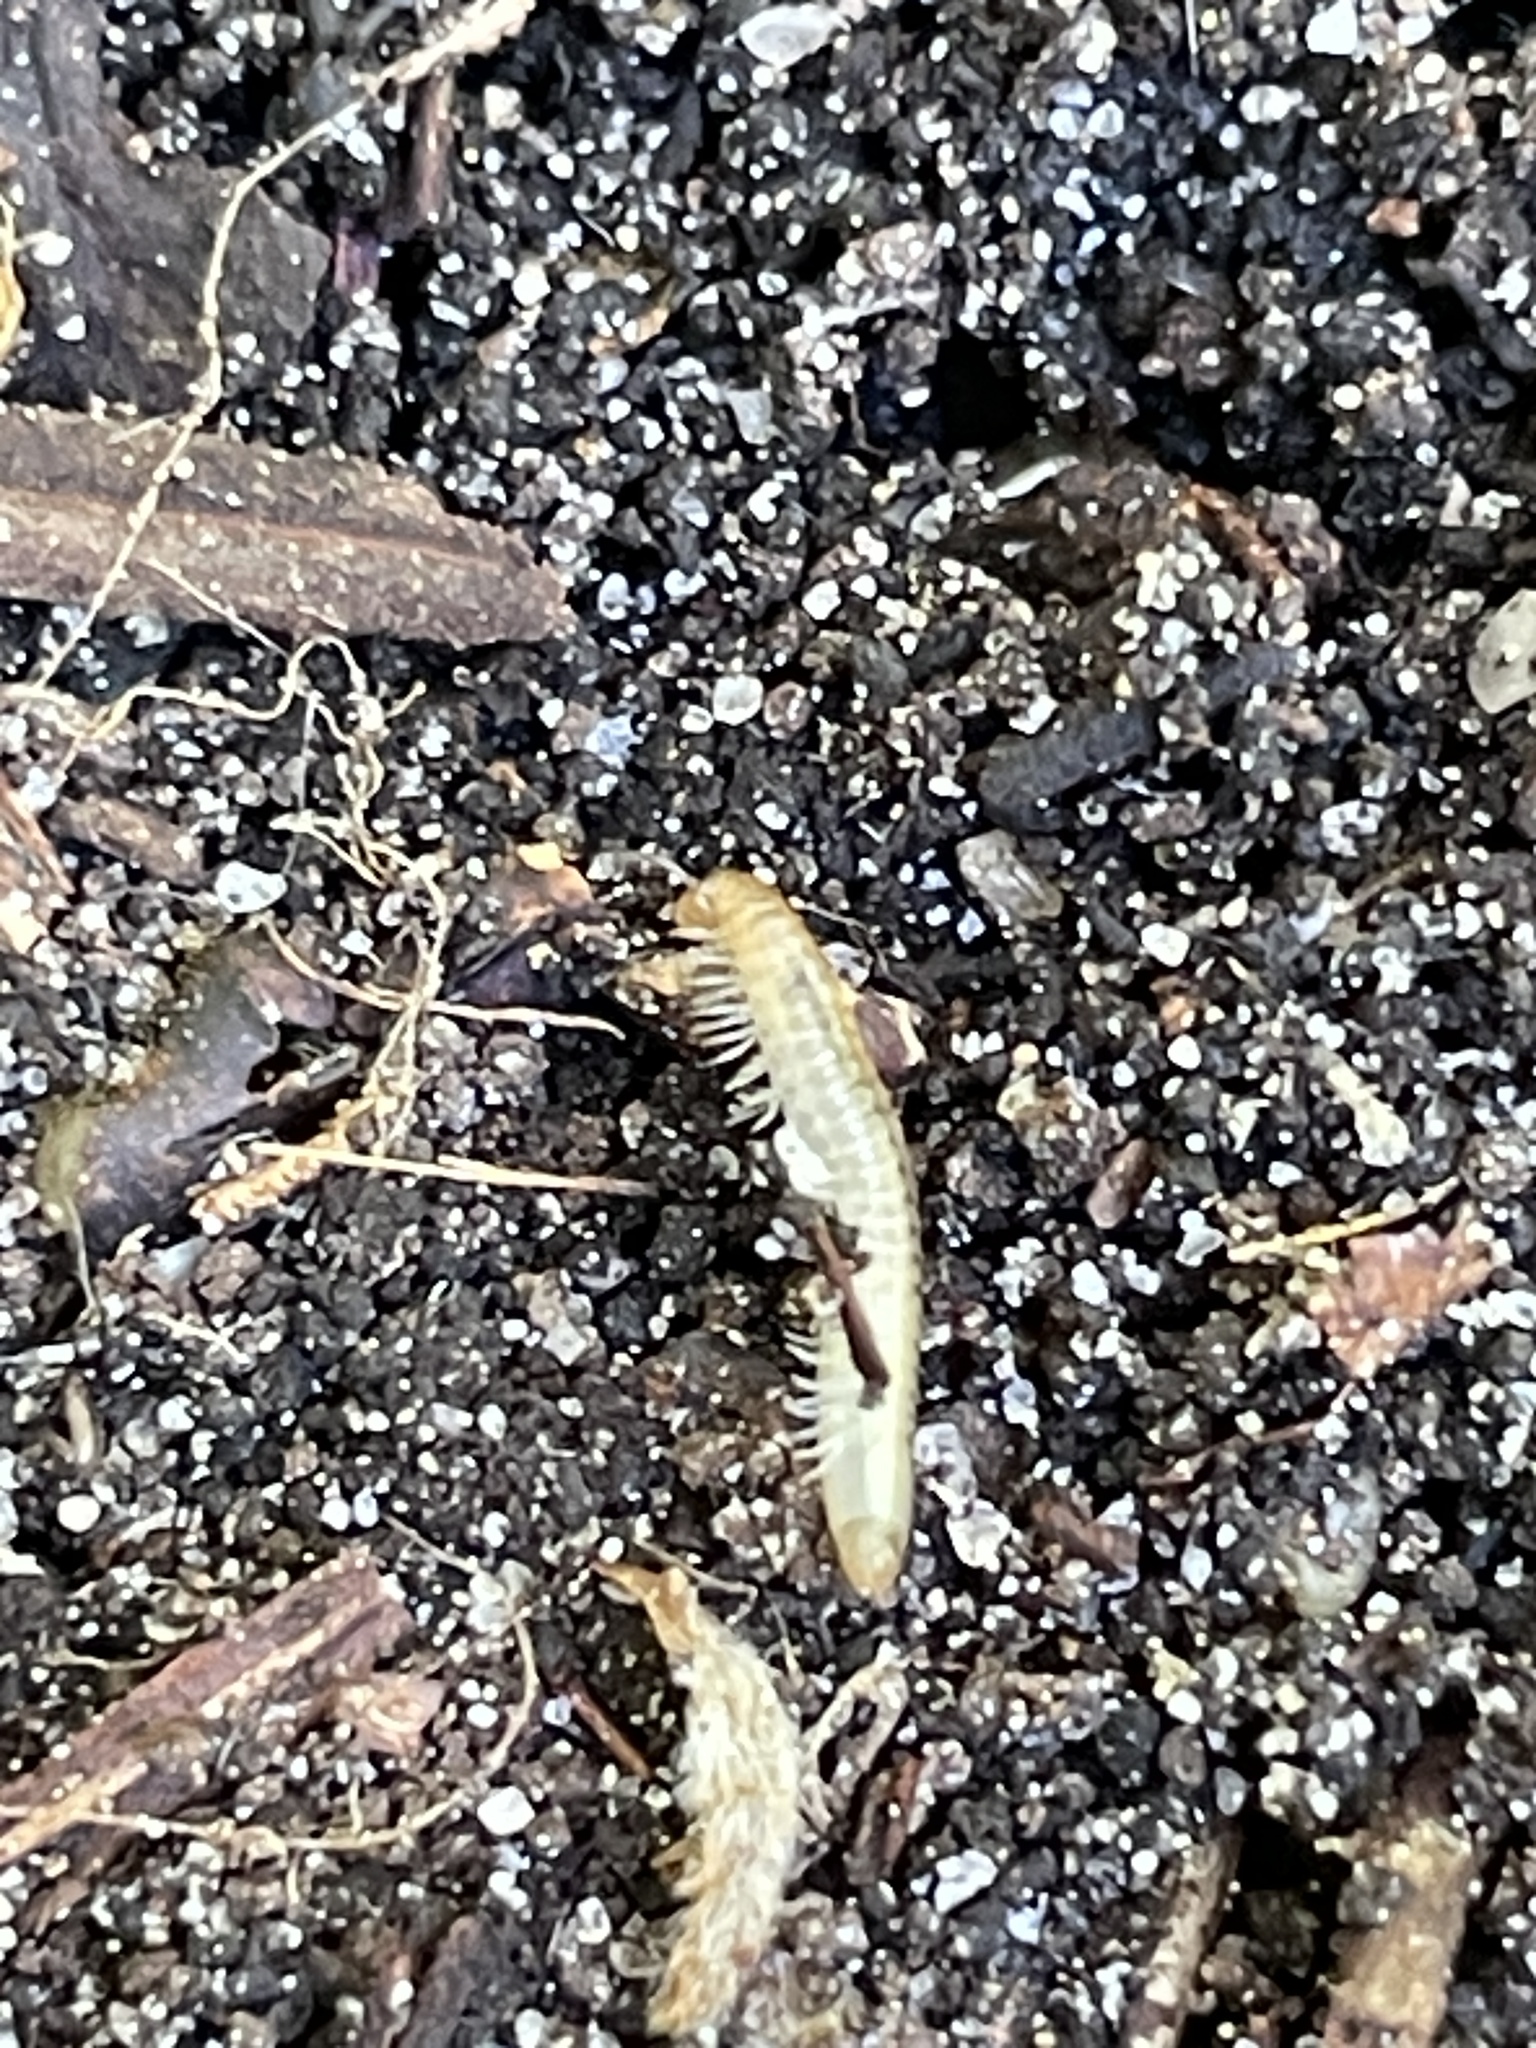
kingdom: Animalia
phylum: Arthropoda
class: Diplopoda
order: Julida
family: Julidae
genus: Ommatoiulus
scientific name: Ommatoiulus moreleti
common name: Portuguese millipede
